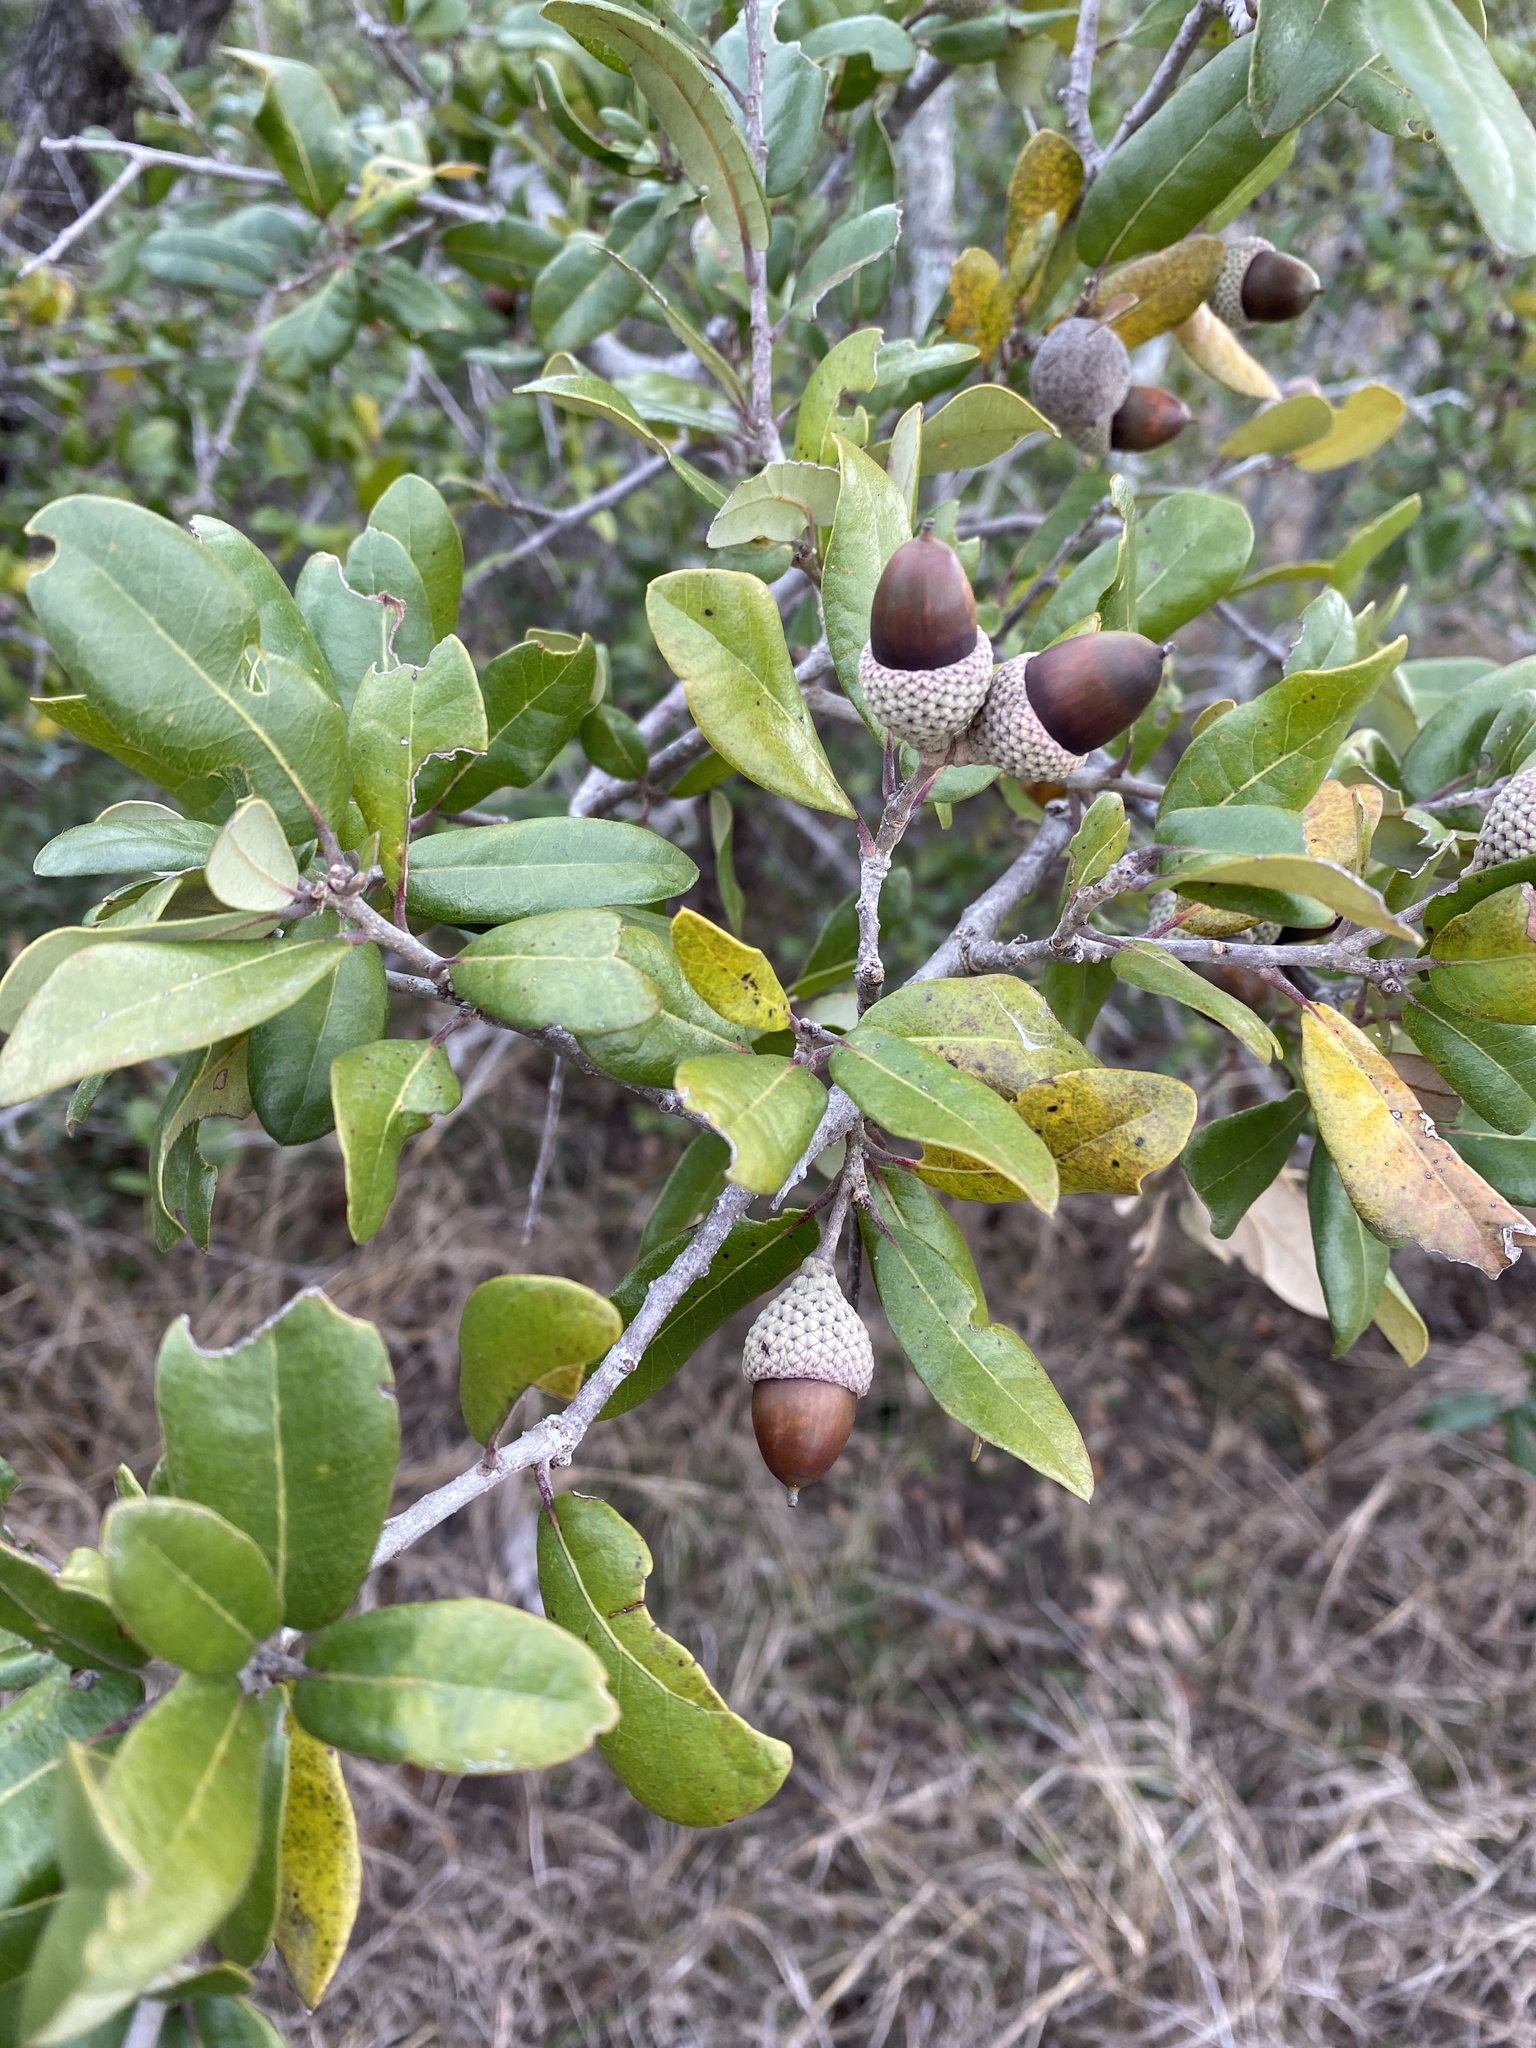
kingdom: Plantae
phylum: Tracheophyta
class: Magnoliopsida
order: Fagales
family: Fagaceae
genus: Quercus
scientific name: Quercus fusiformis
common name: Texas live oak
